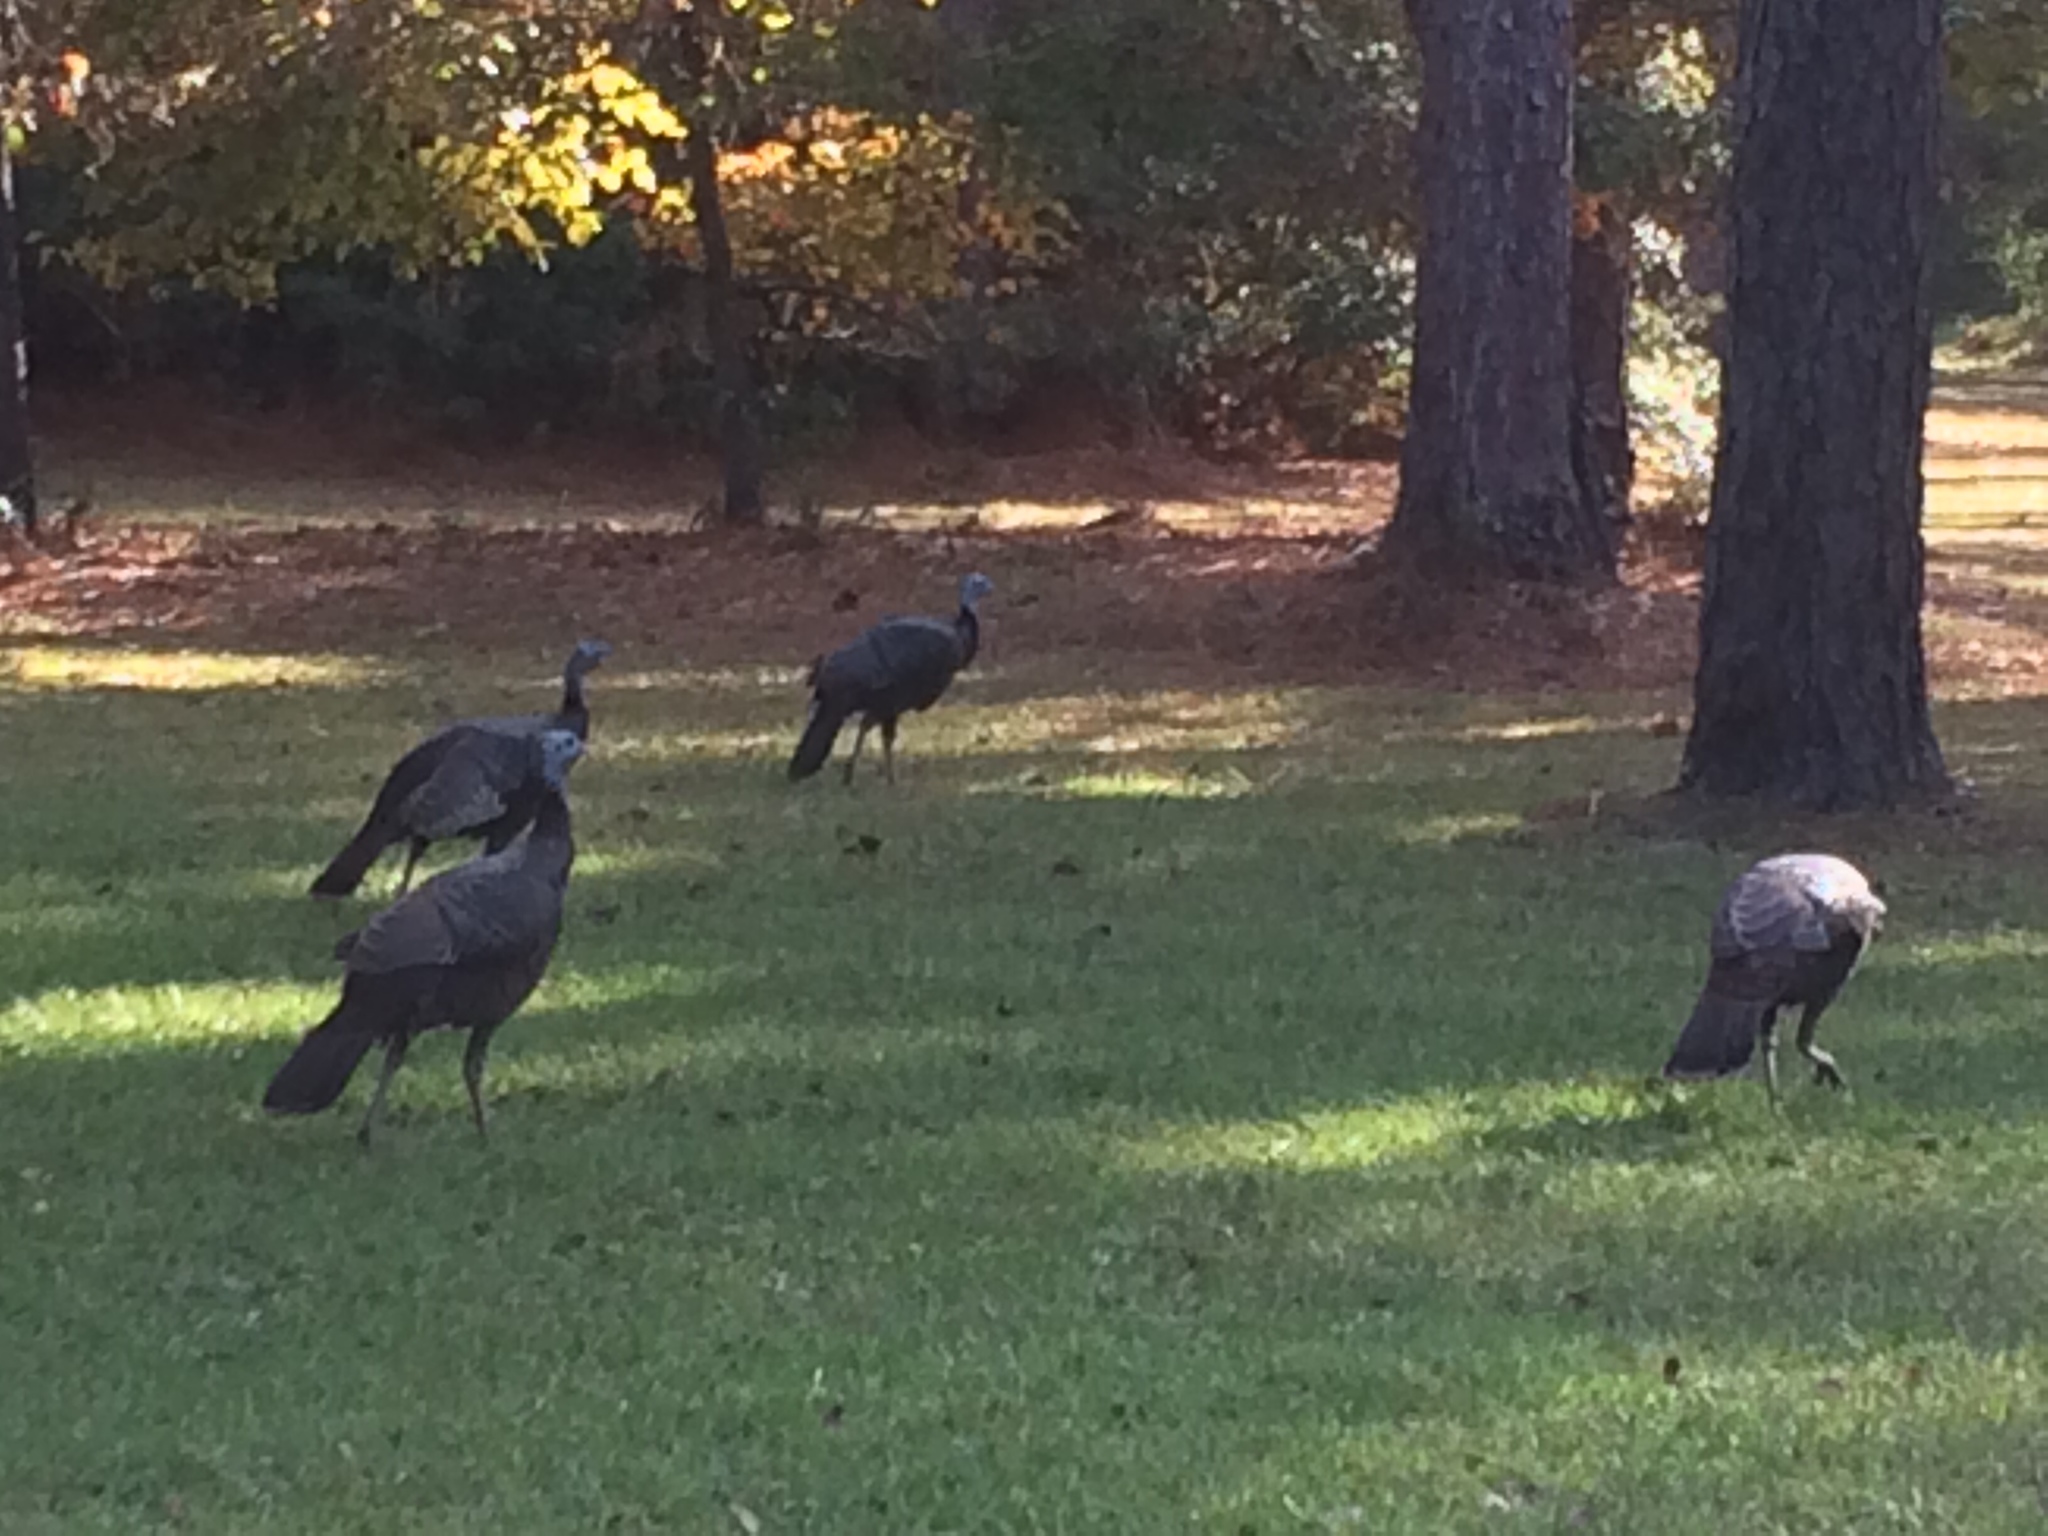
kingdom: Animalia
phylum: Chordata
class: Aves
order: Galliformes
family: Phasianidae
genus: Meleagris
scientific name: Meleagris gallopavo
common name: Wild turkey
